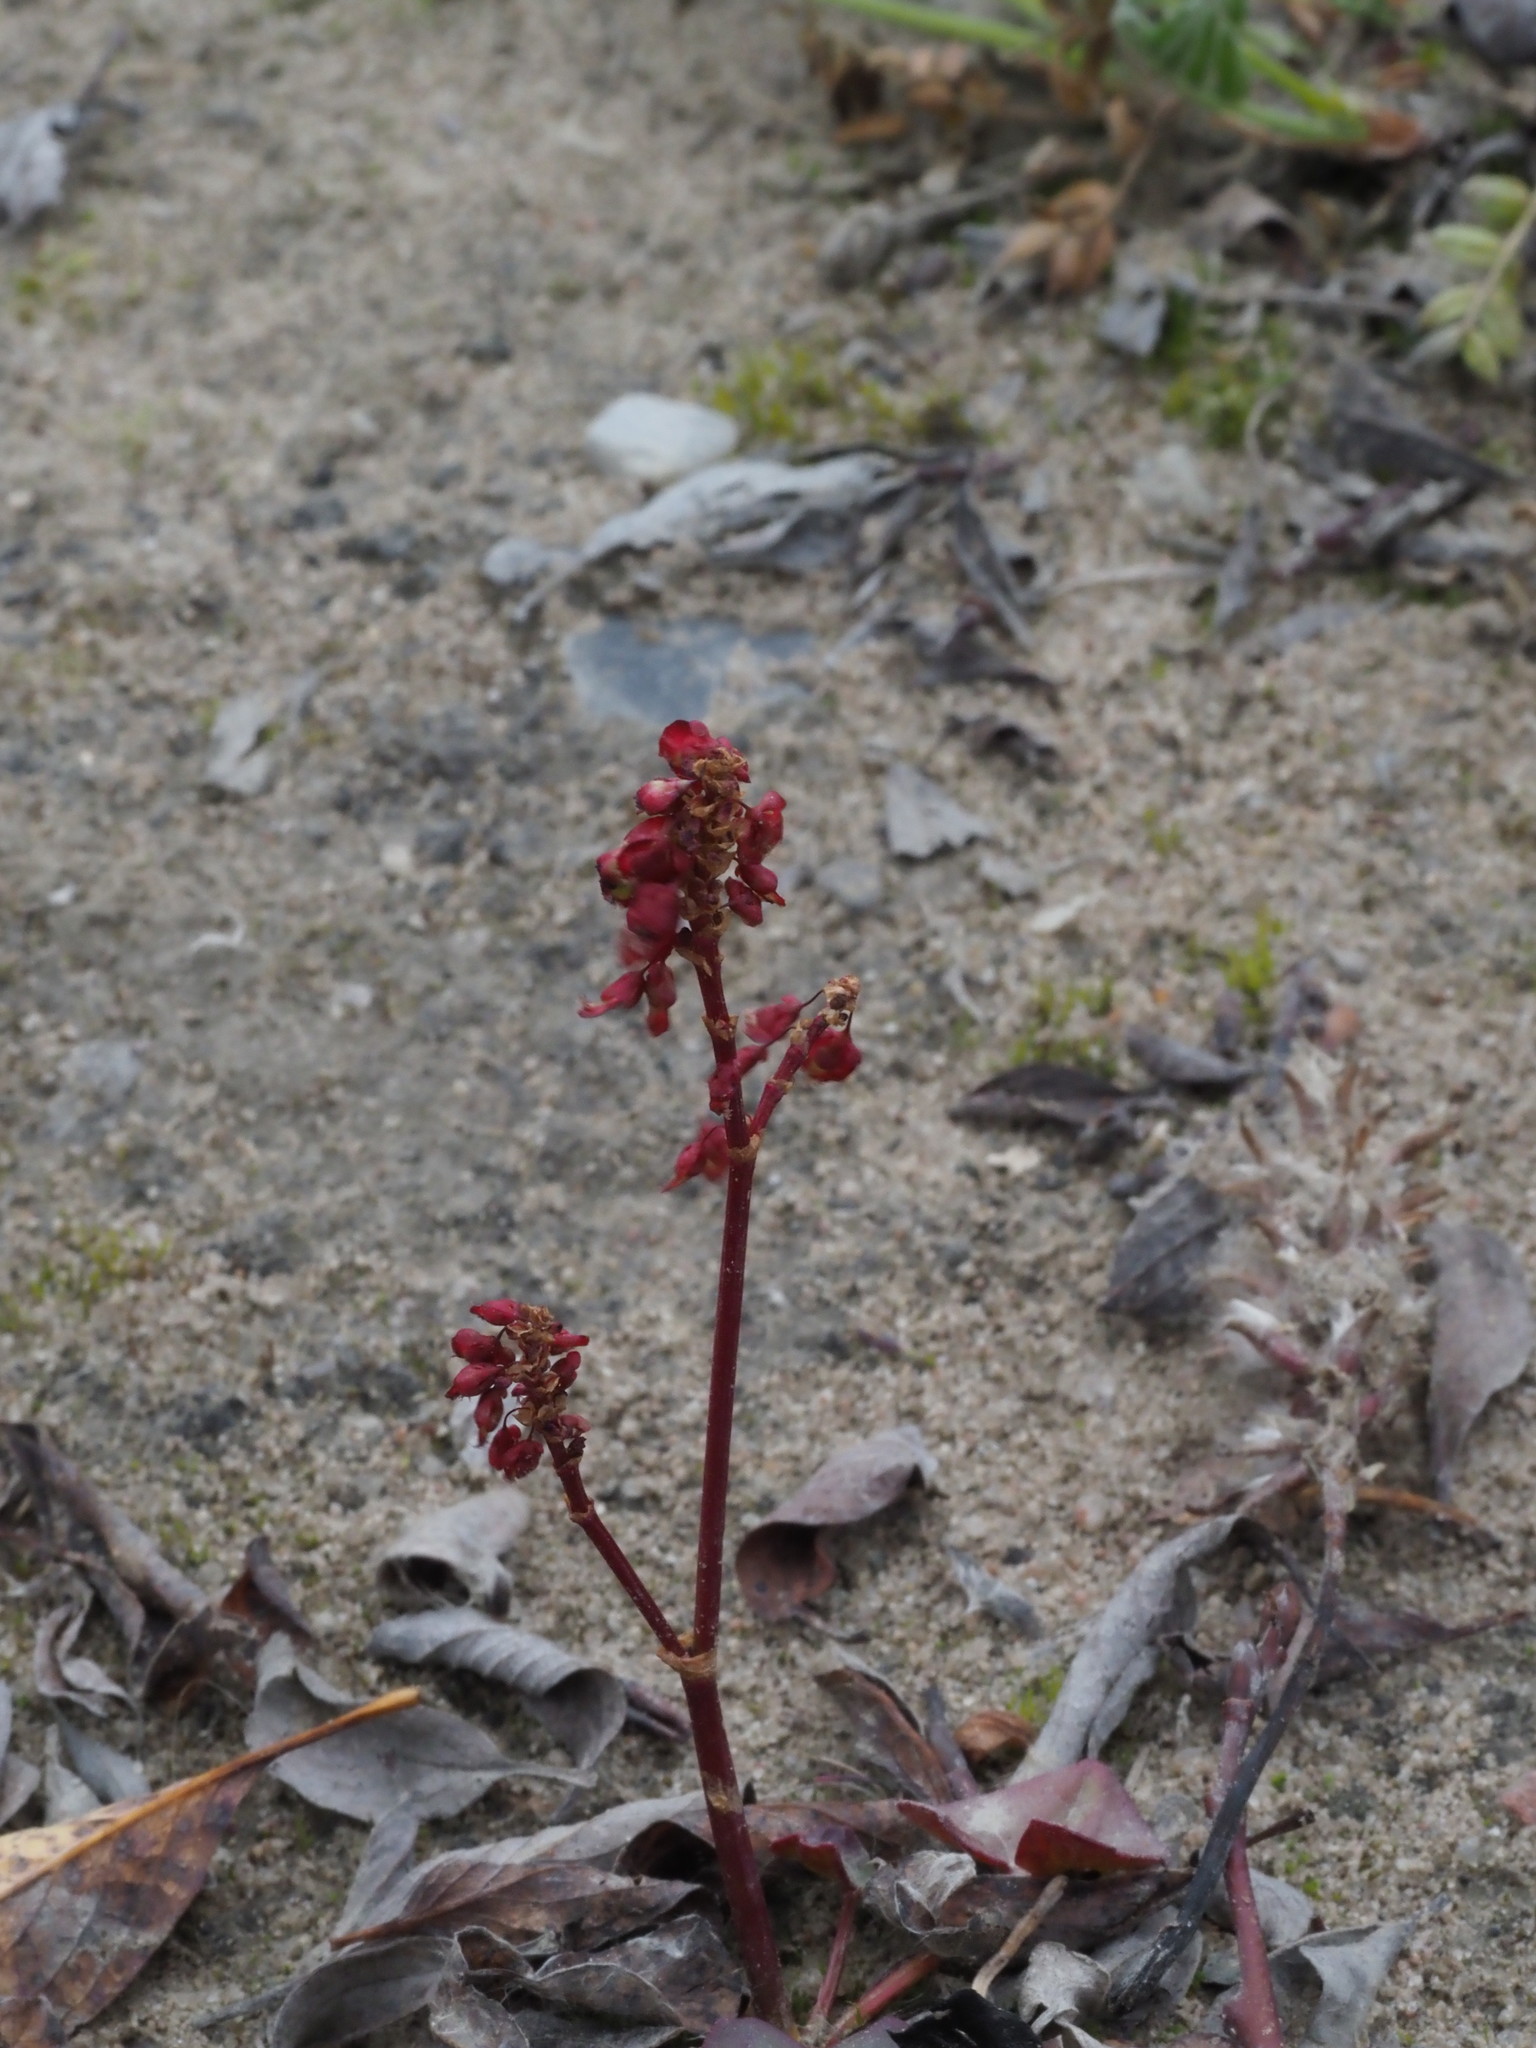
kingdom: Plantae
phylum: Tracheophyta
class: Magnoliopsida
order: Caryophyllales
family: Polygonaceae
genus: Oxyria
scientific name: Oxyria digyna
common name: Alpine mountain-sorrel
